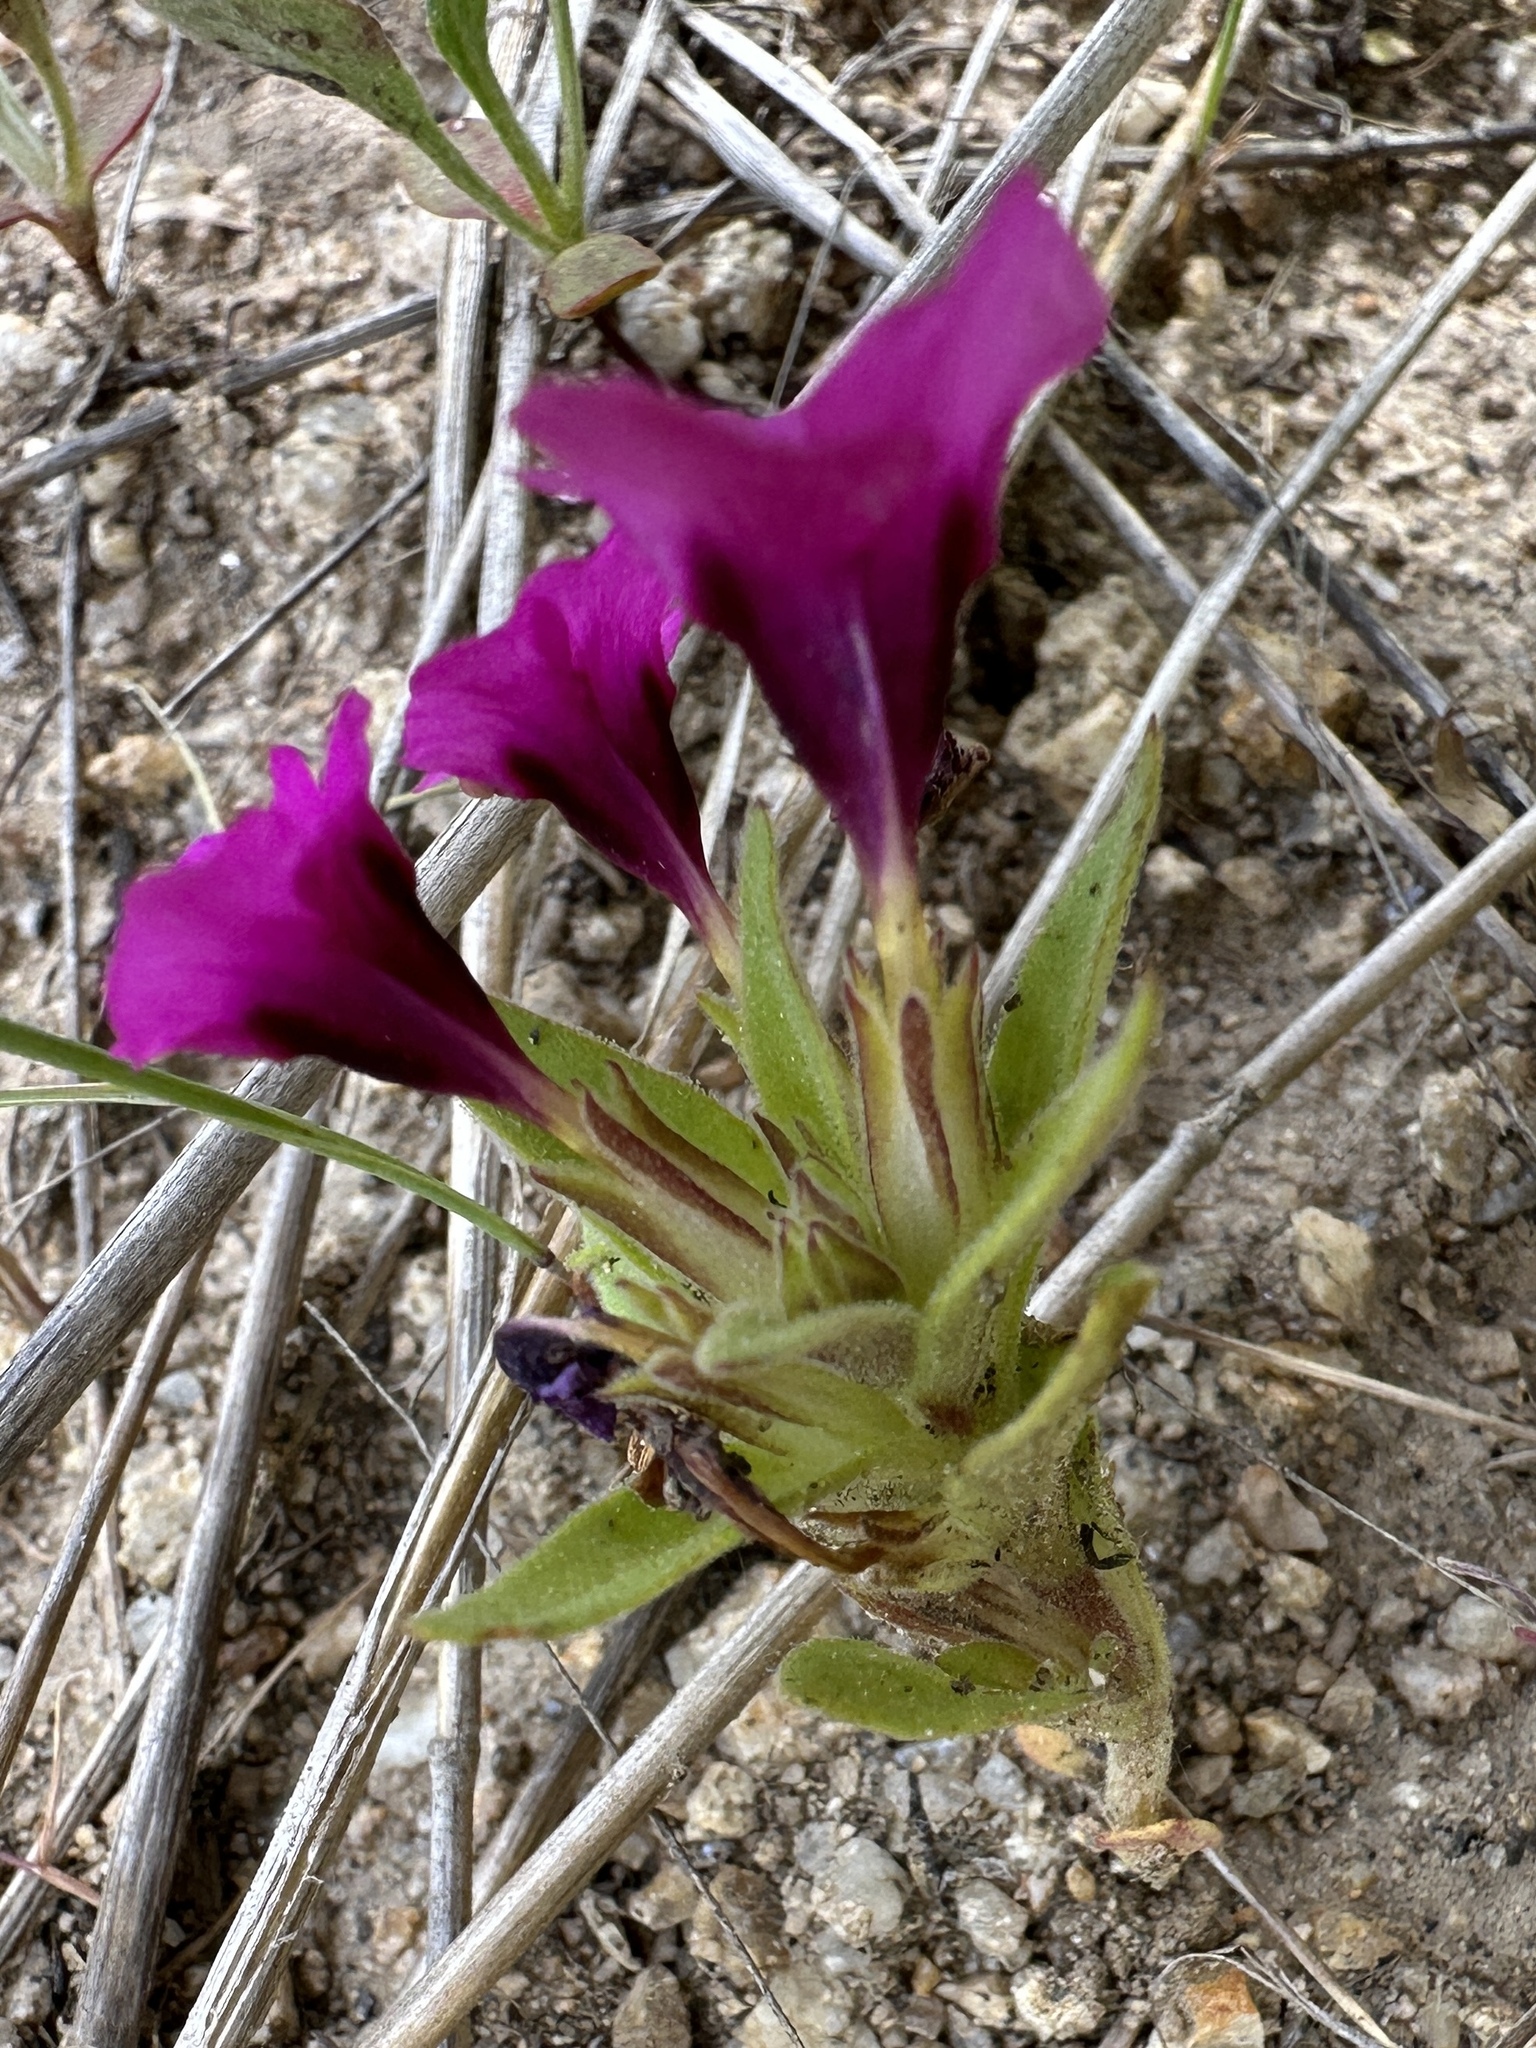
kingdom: Plantae
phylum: Tracheophyta
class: Magnoliopsida
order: Lamiales
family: Phrymaceae
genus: Diplacus
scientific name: Diplacus nanus
